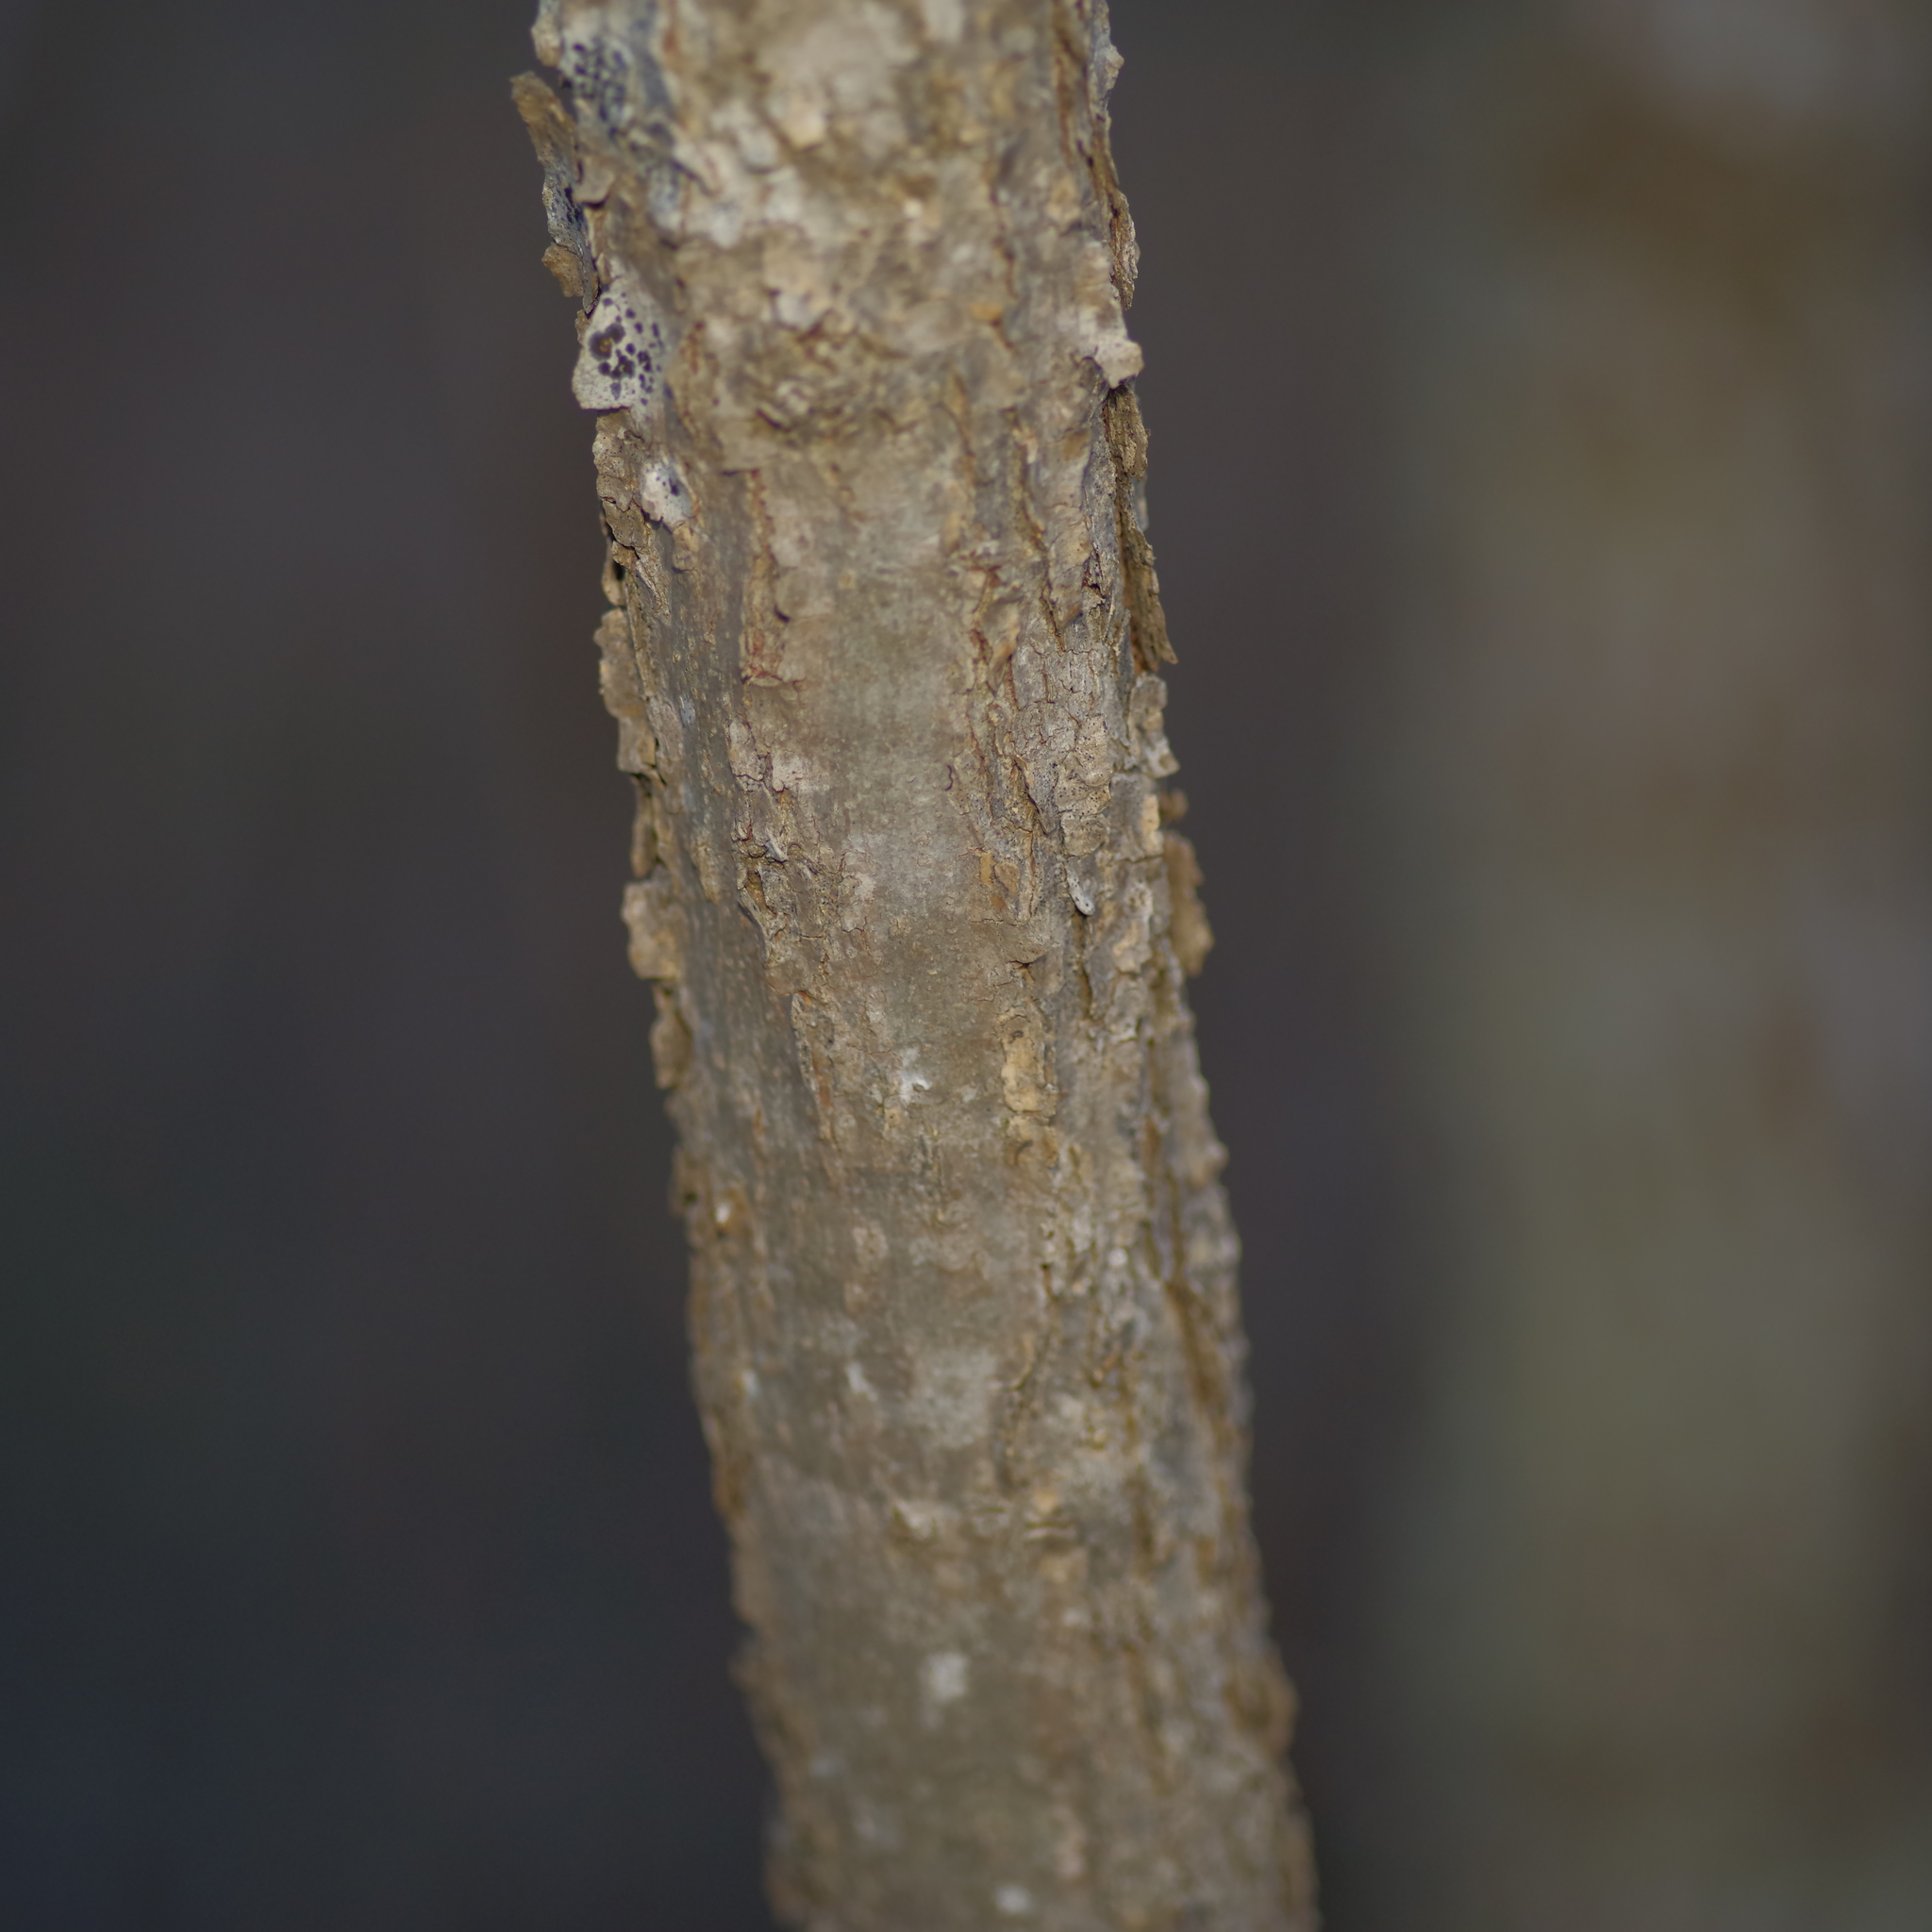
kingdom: Plantae
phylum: Tracheophyta
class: Magnoliopsida
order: Sapindales
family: Sapindaceae
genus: Sapindus
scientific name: Sapindus drummondii
